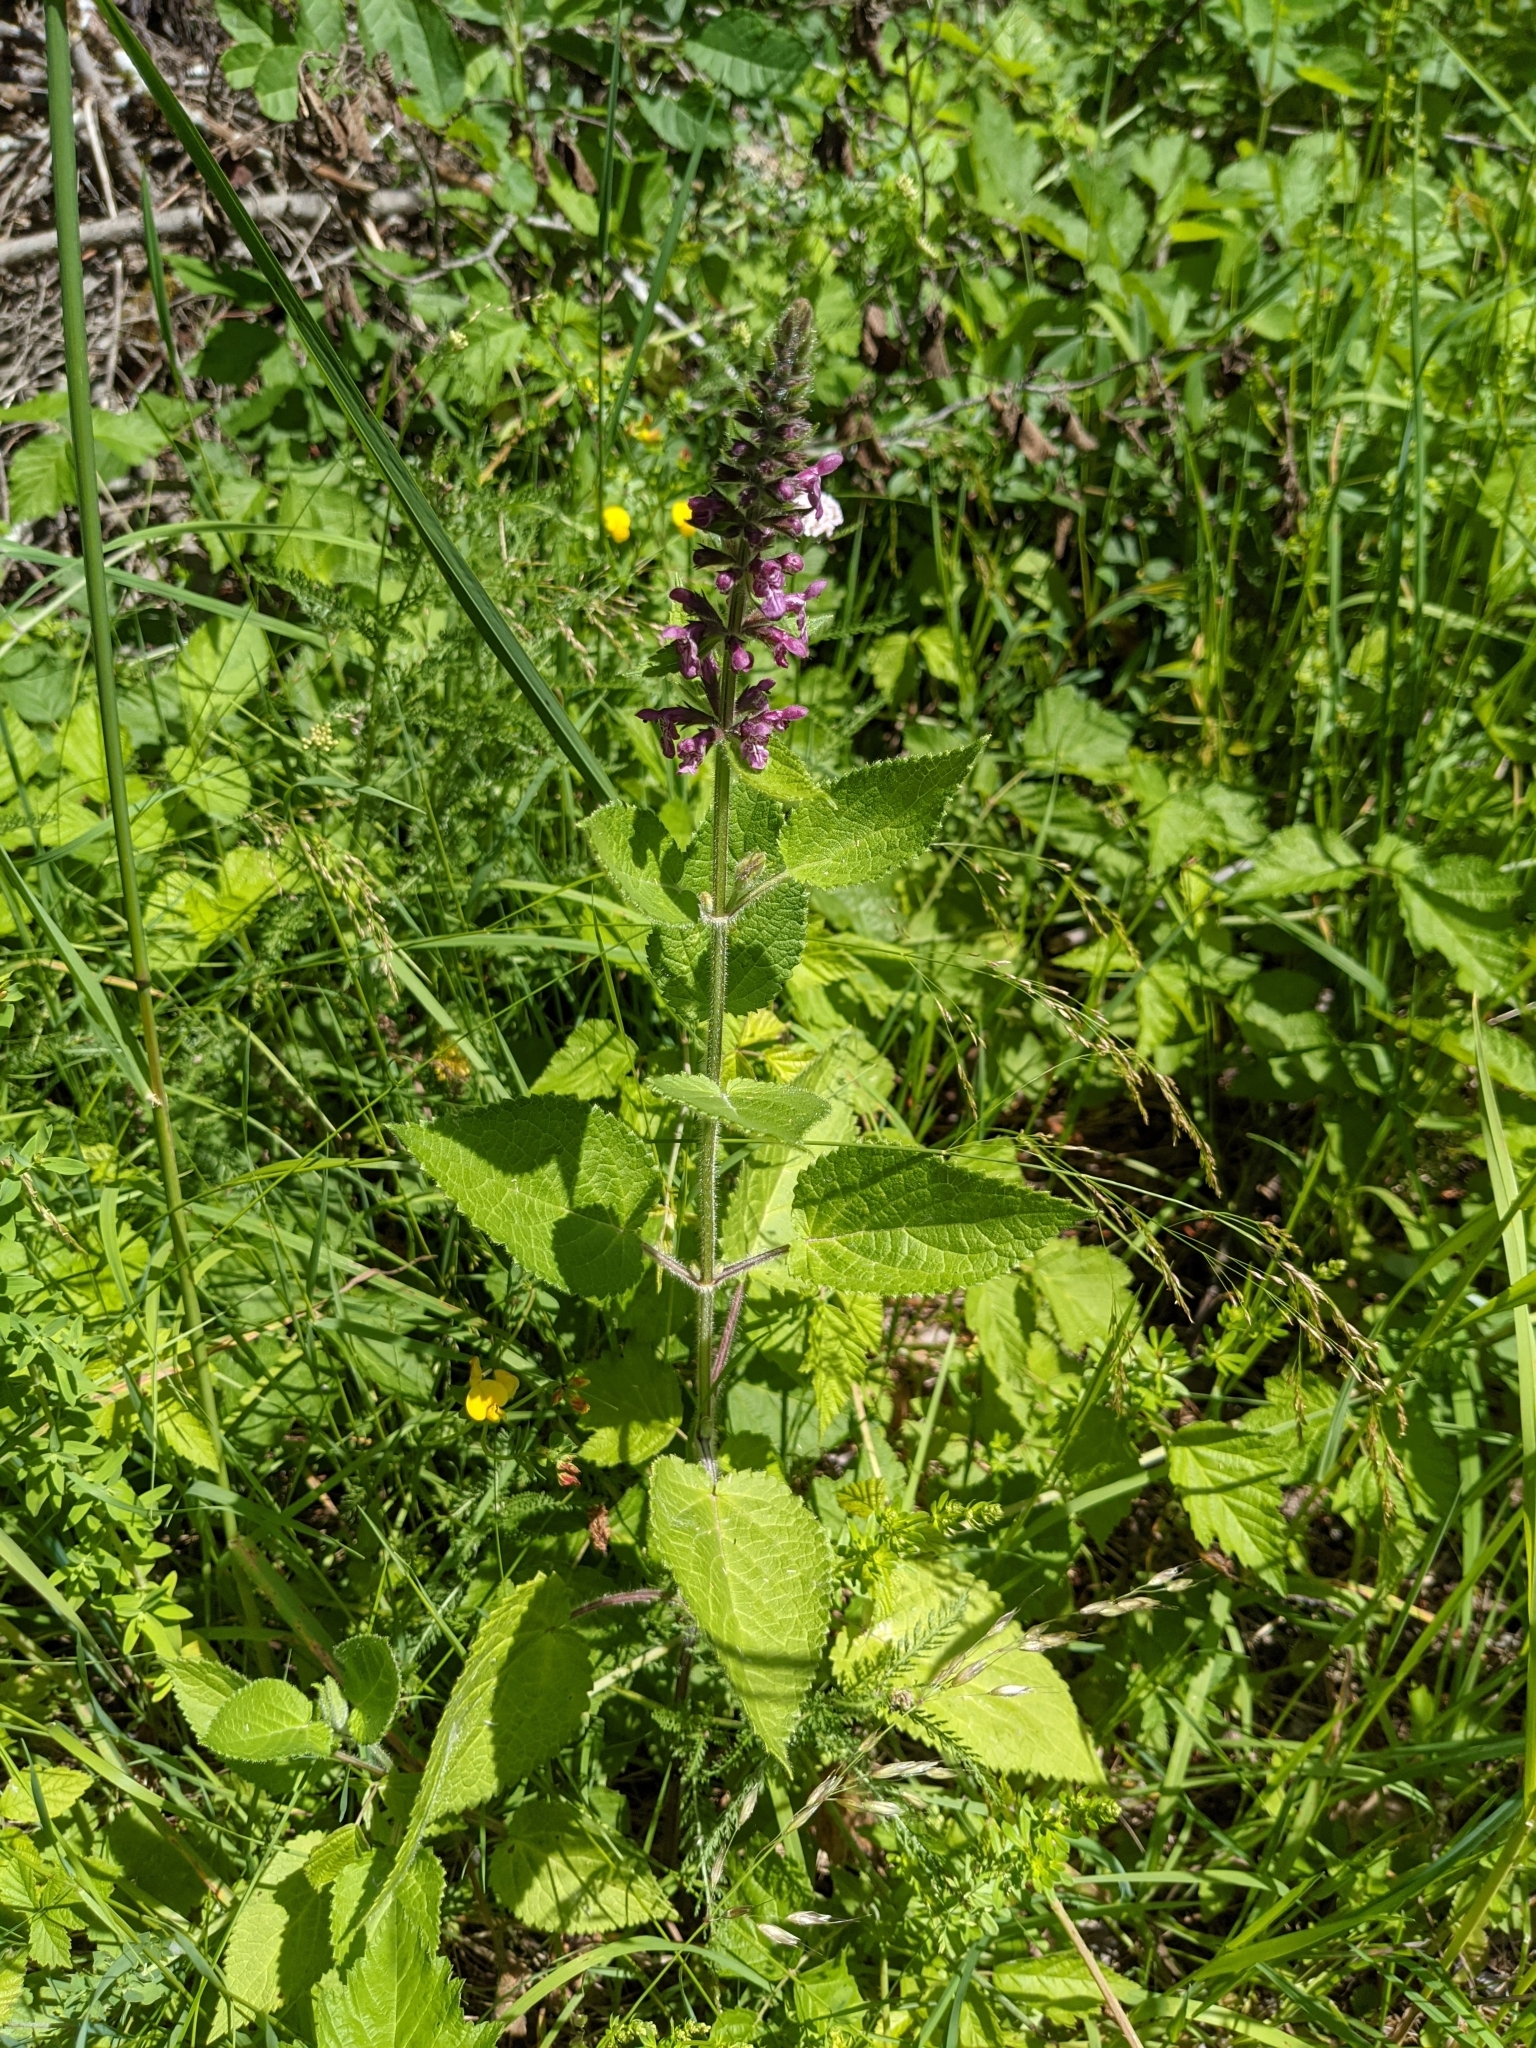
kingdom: Plantae
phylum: Tracheophyta
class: Magnoliopsida
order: Lamiales
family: Lamiaceae
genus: Stachys
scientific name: Stachys sylvatica
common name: Hedge woundwort
